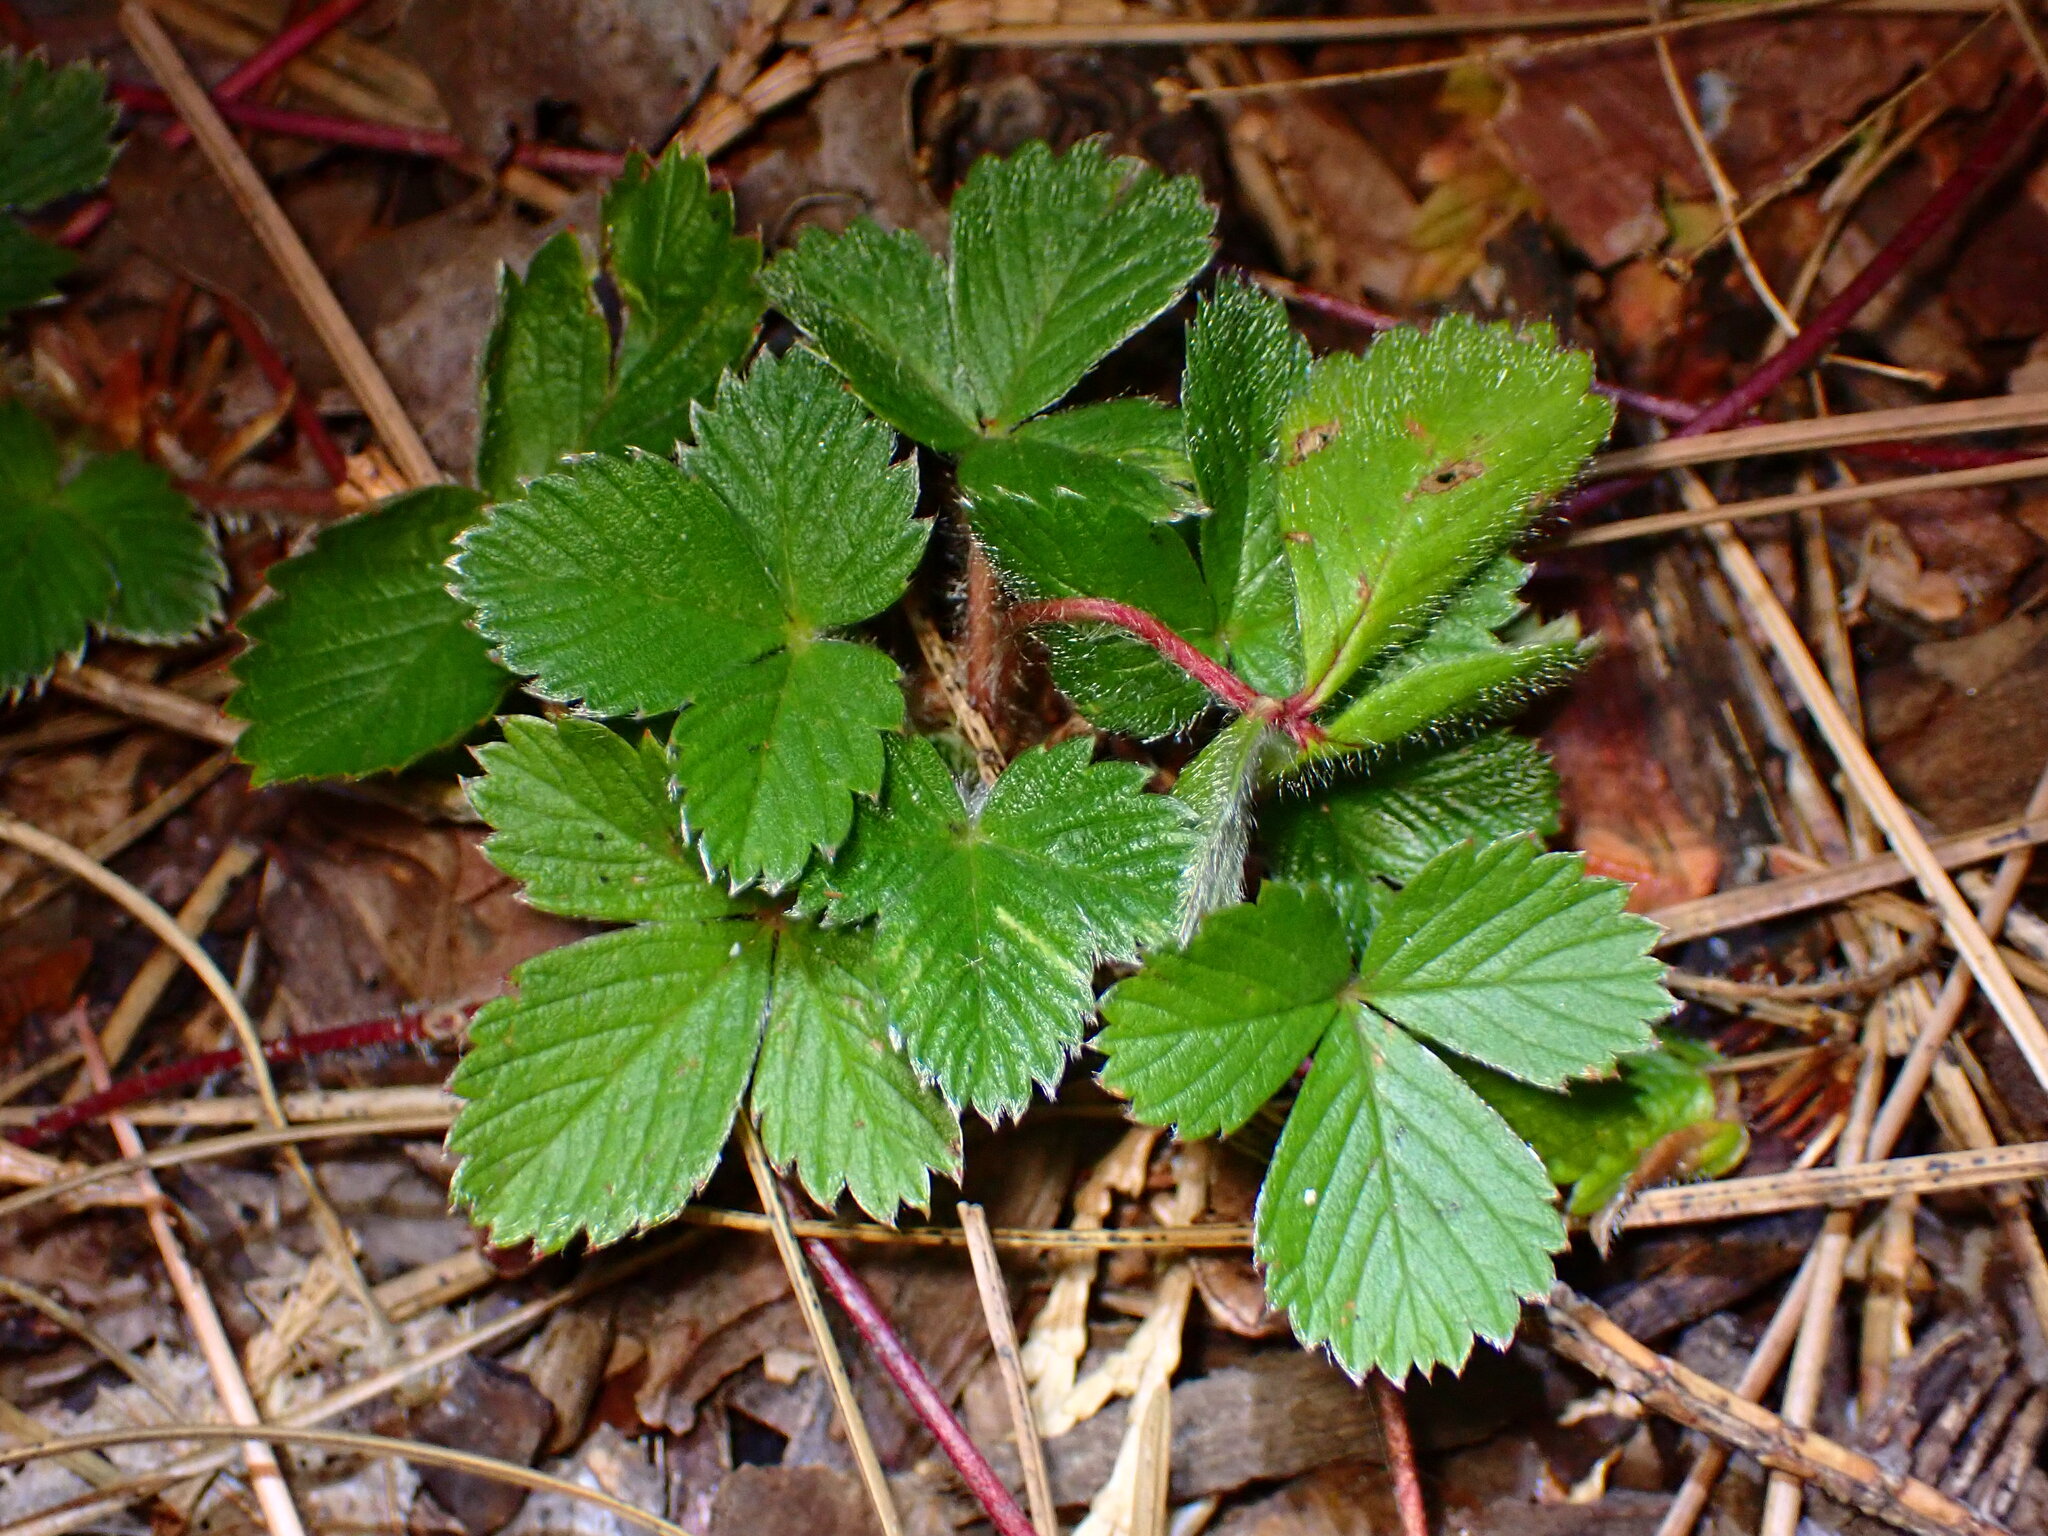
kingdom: Plantae
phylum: Tracheophyta
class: Magnoliopsida
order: Rosales
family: Rosaceae
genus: Fragaria
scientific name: Fragaria vesca
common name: Wild strawberry
